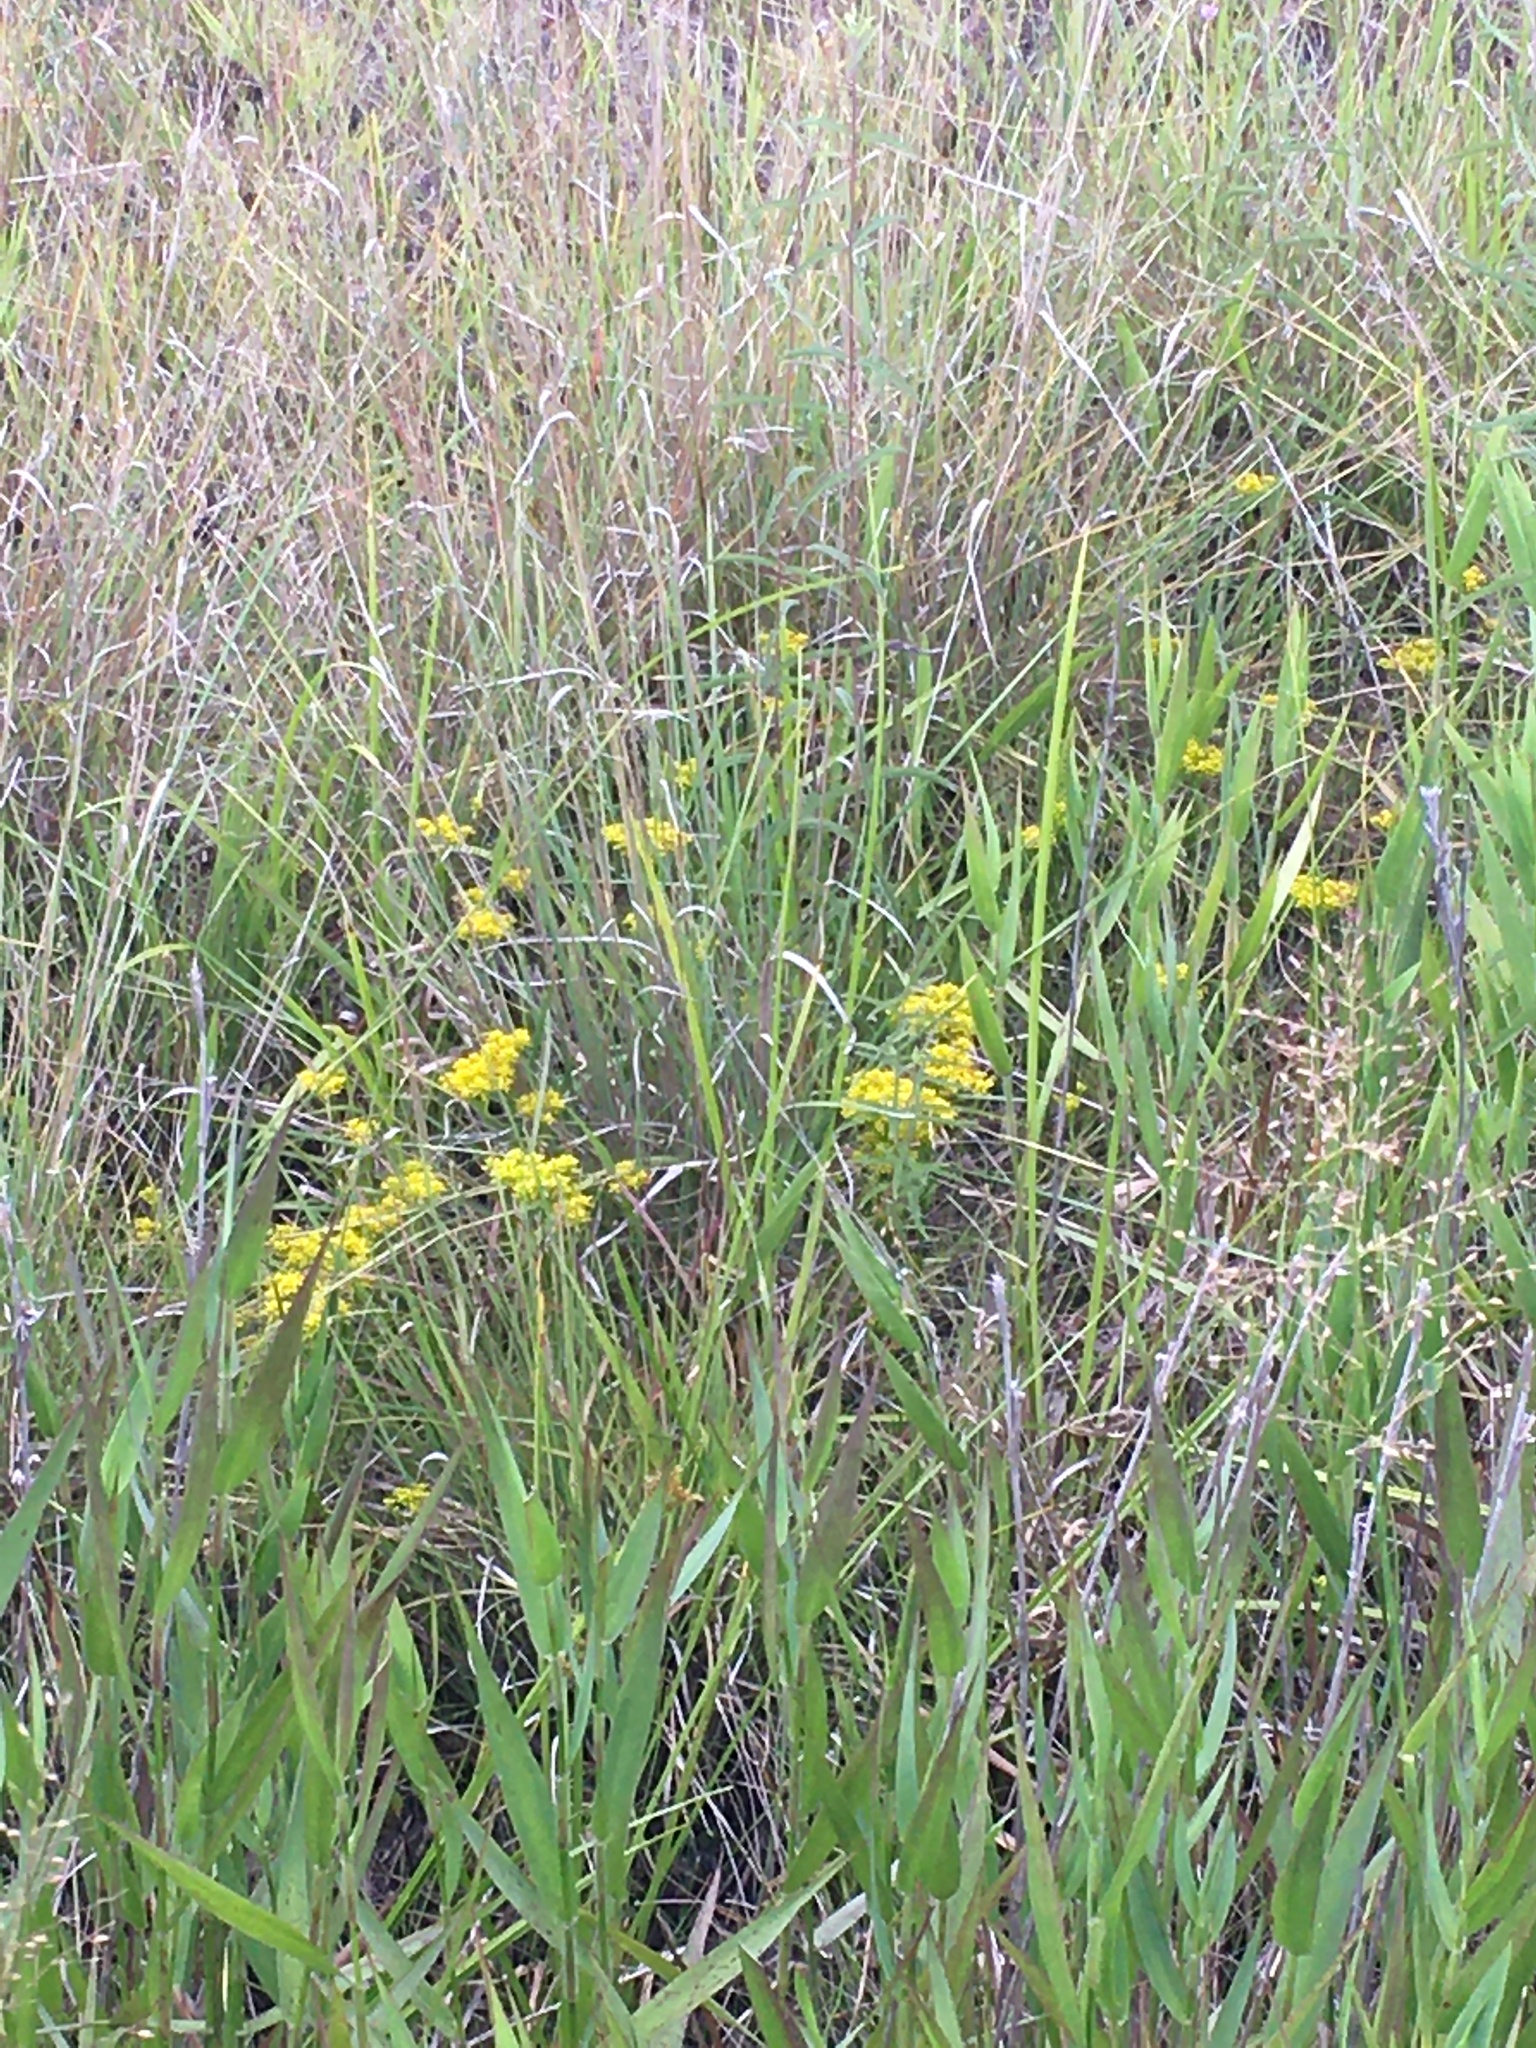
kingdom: Plantae
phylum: Tracheophyta
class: Magnoliopsida
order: Fabales
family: Polygalaceae
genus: Polygala
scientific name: Polygala ramosa
